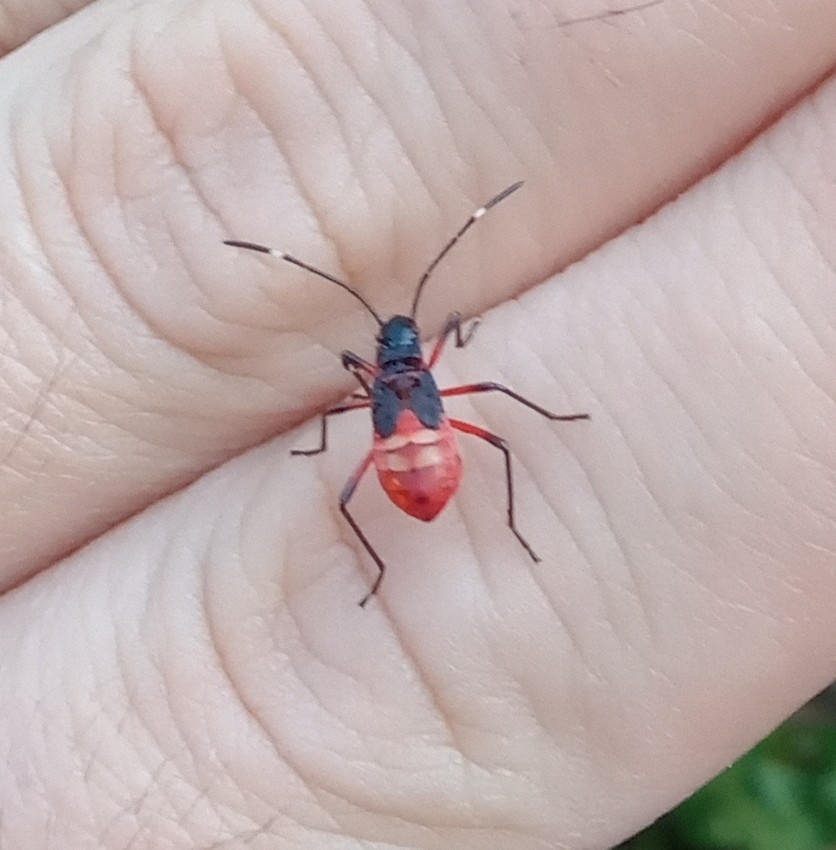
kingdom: Animalia
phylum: Arthropoda
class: Insecta
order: Hemiptera
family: Pyrrhocoridae
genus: Dysdercus
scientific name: Dysdercus albofasciatus
